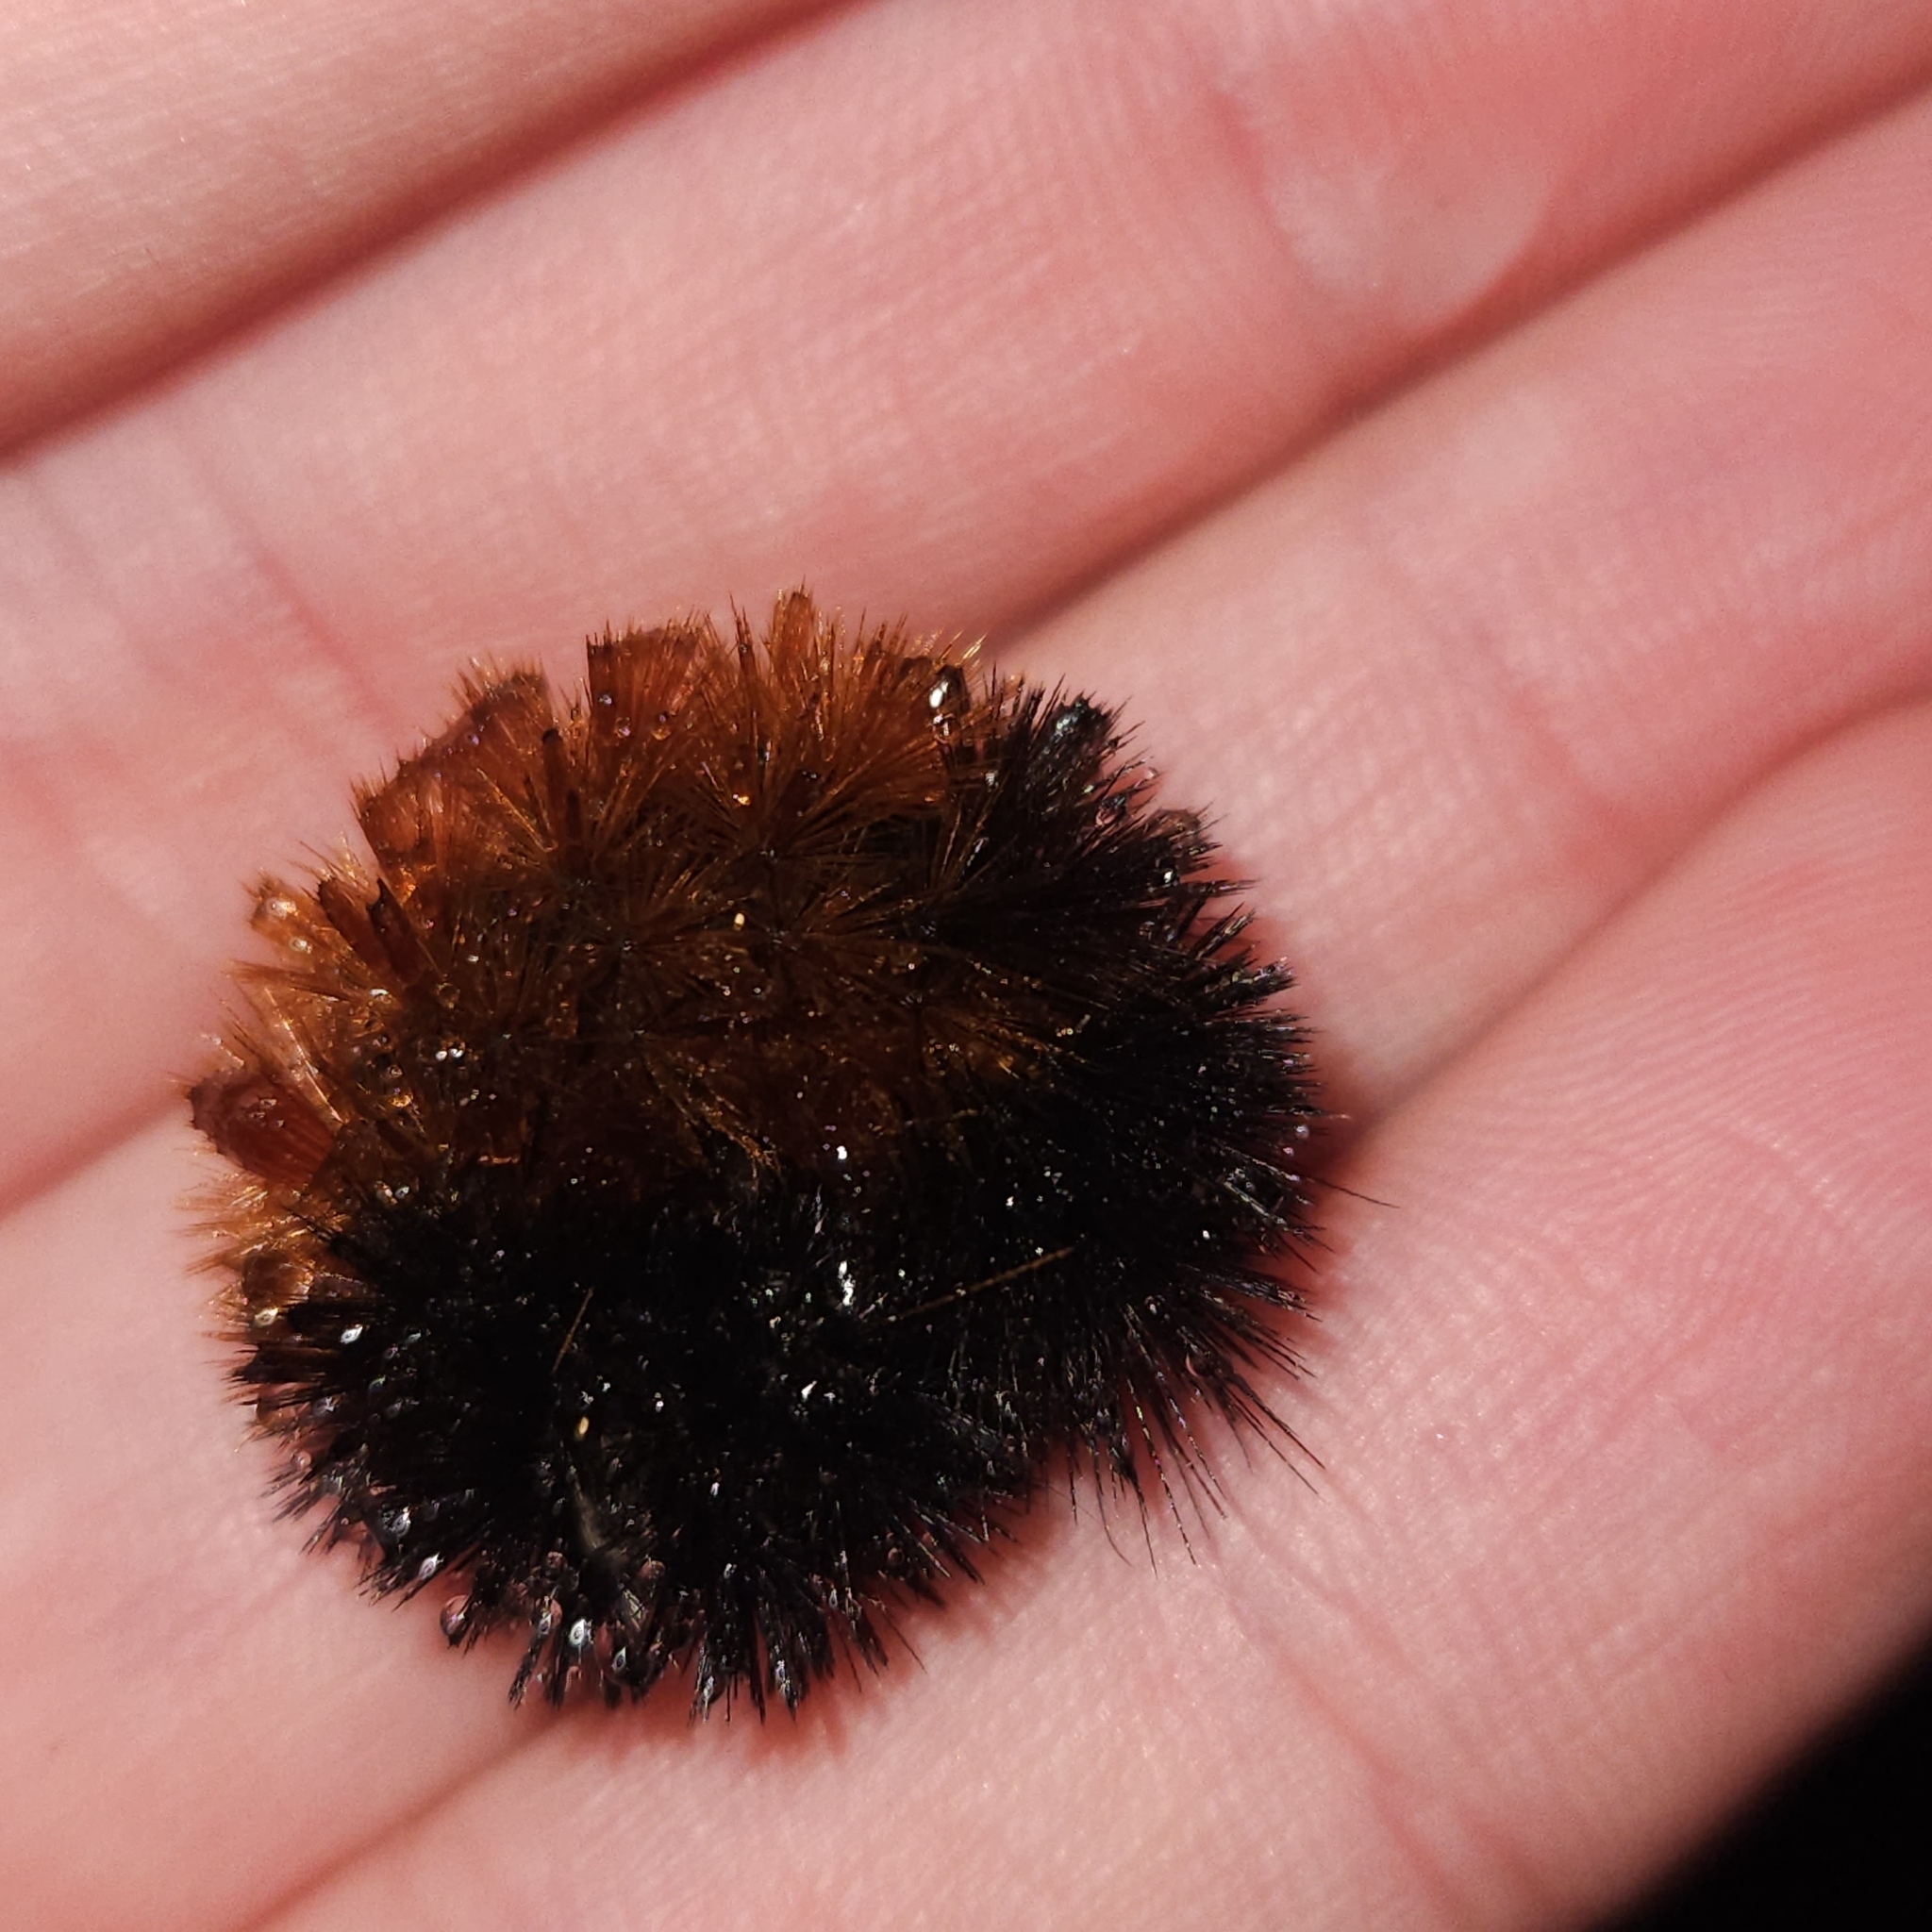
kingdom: Animalia
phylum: Arthropoda
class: Insecta
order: Lepidoptera
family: Erebidae
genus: Pyrrharctia
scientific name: Pyrrharctia isabella
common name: Isabella tiger moth
